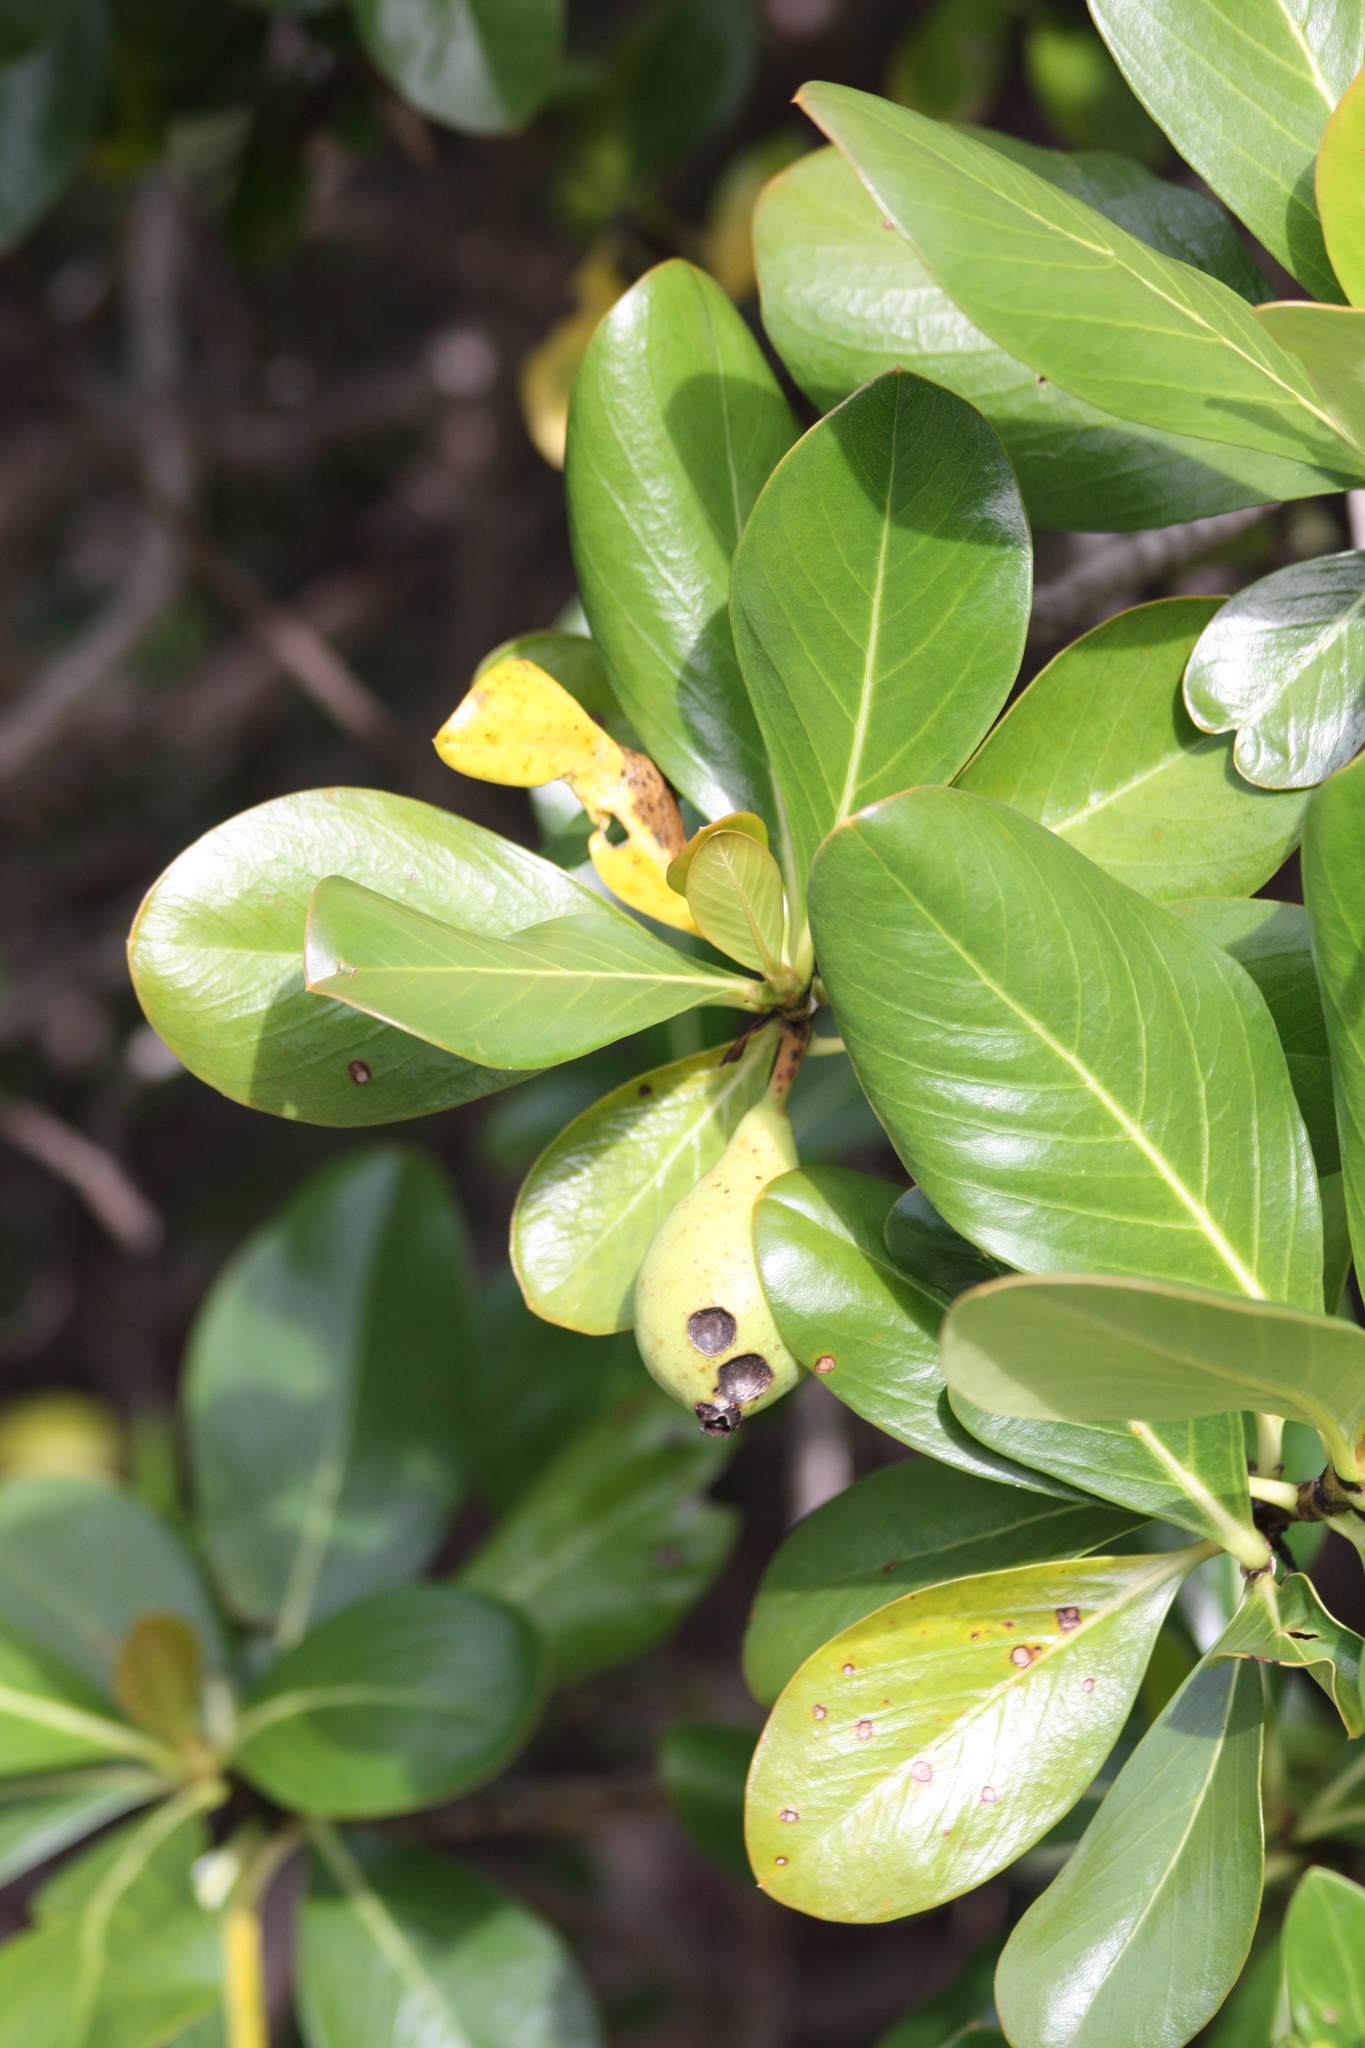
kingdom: Plantae
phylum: Tracheophyta
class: Magnoliopsida
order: Gentianales
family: Rubiaceae
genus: Casasia
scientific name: Casasia clusiifolia
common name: Seven-year apple
